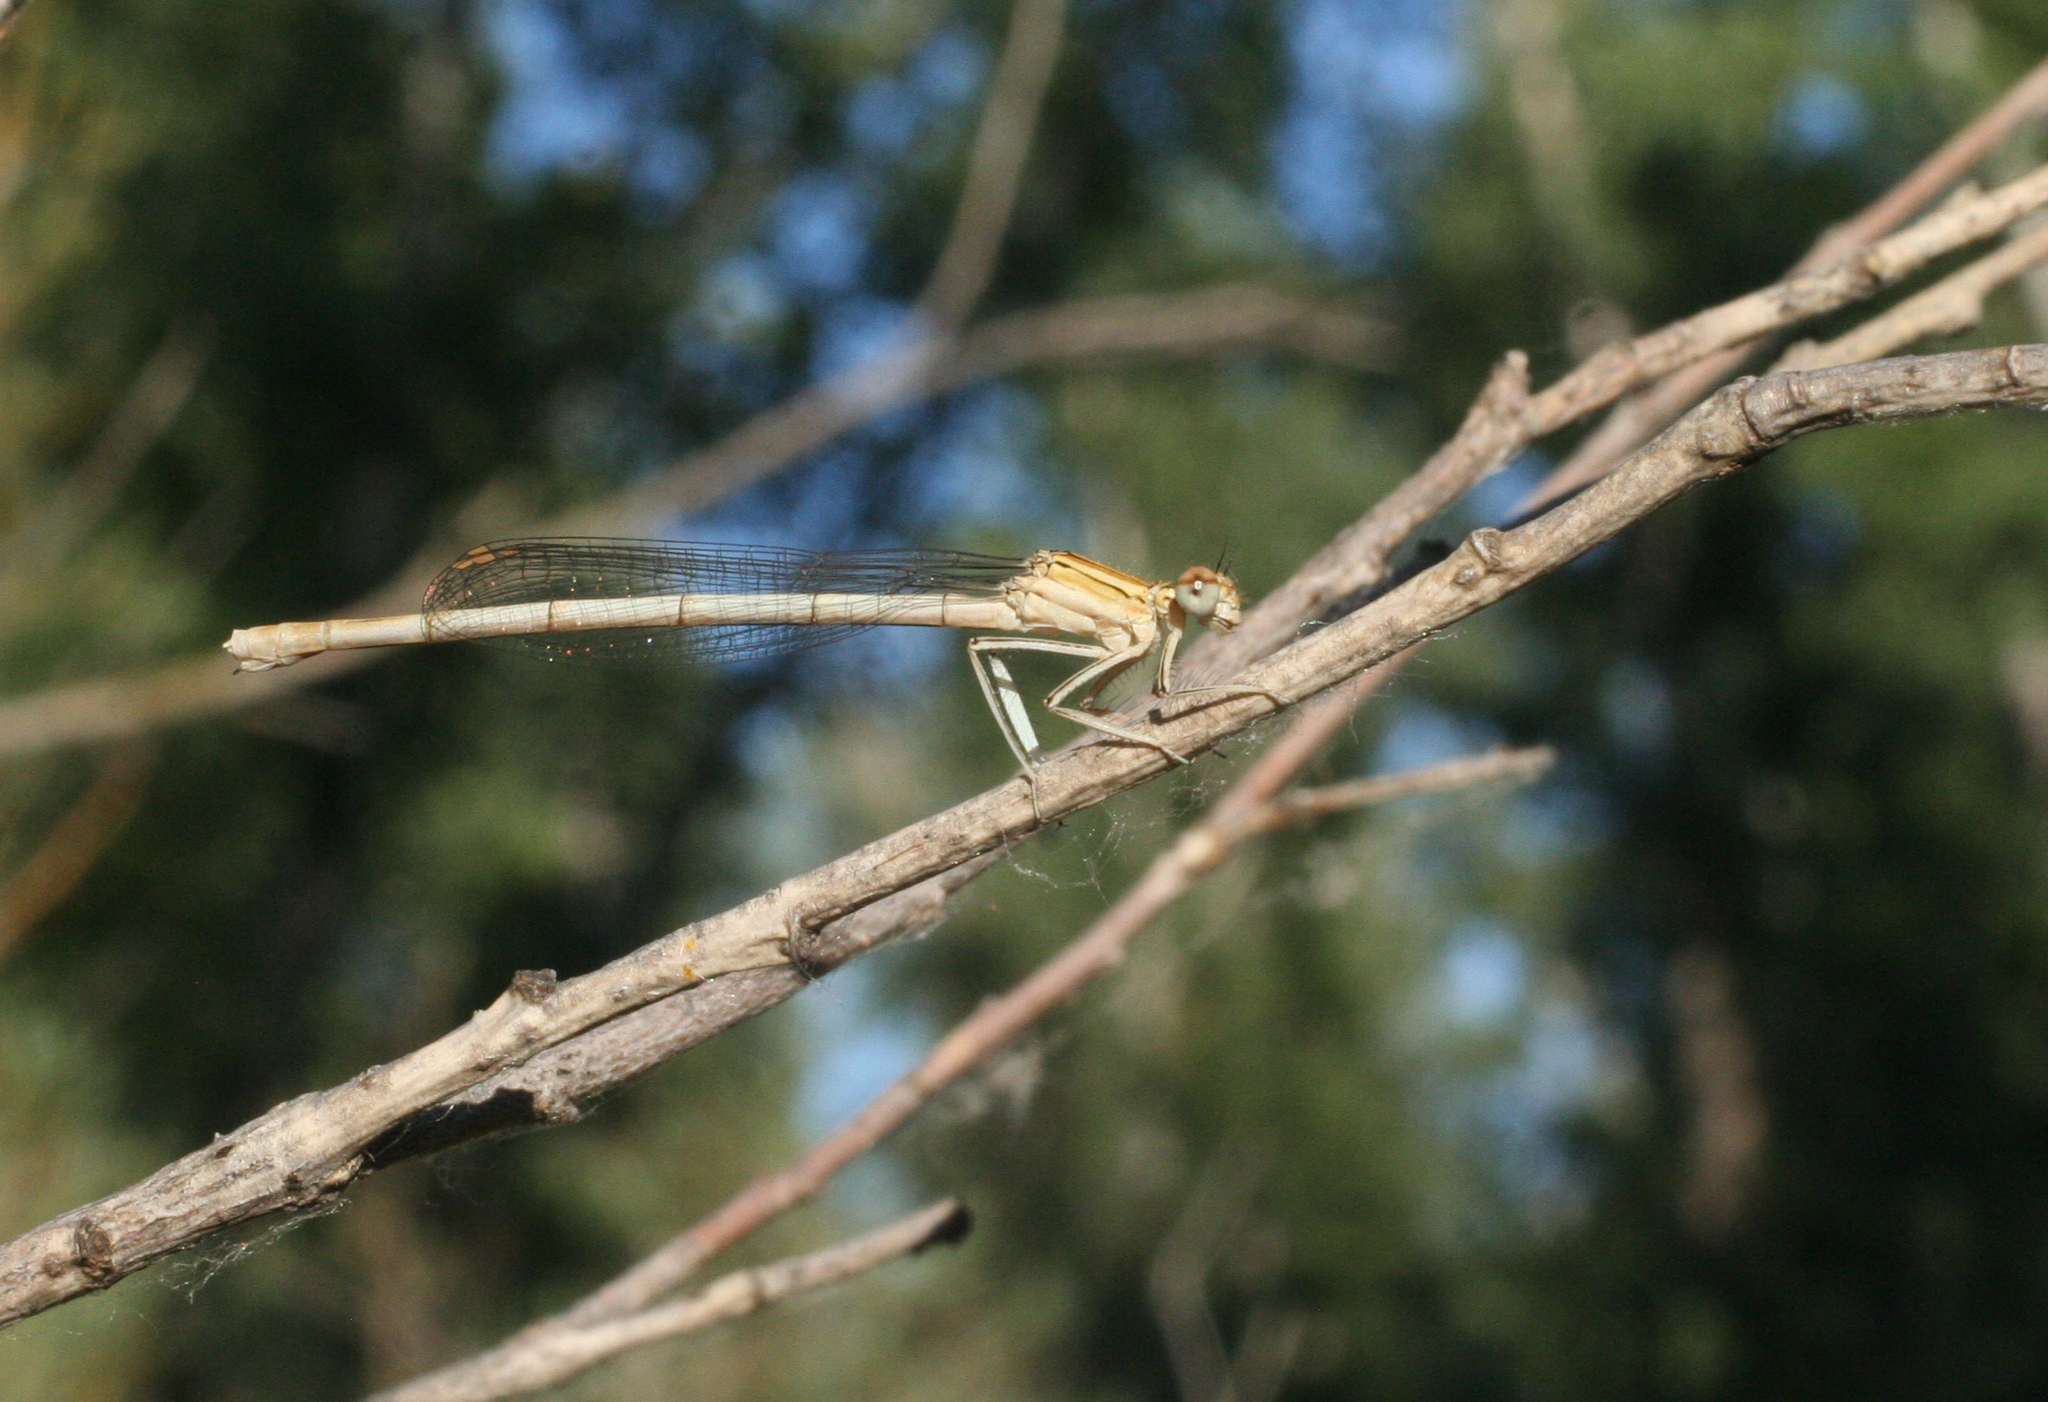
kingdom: Animalia
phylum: Arthropoda
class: Insecta
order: Odonata
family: Platycnemididae
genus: Platycnemis
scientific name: Platycnemis pennipes
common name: White-legged damselfly
